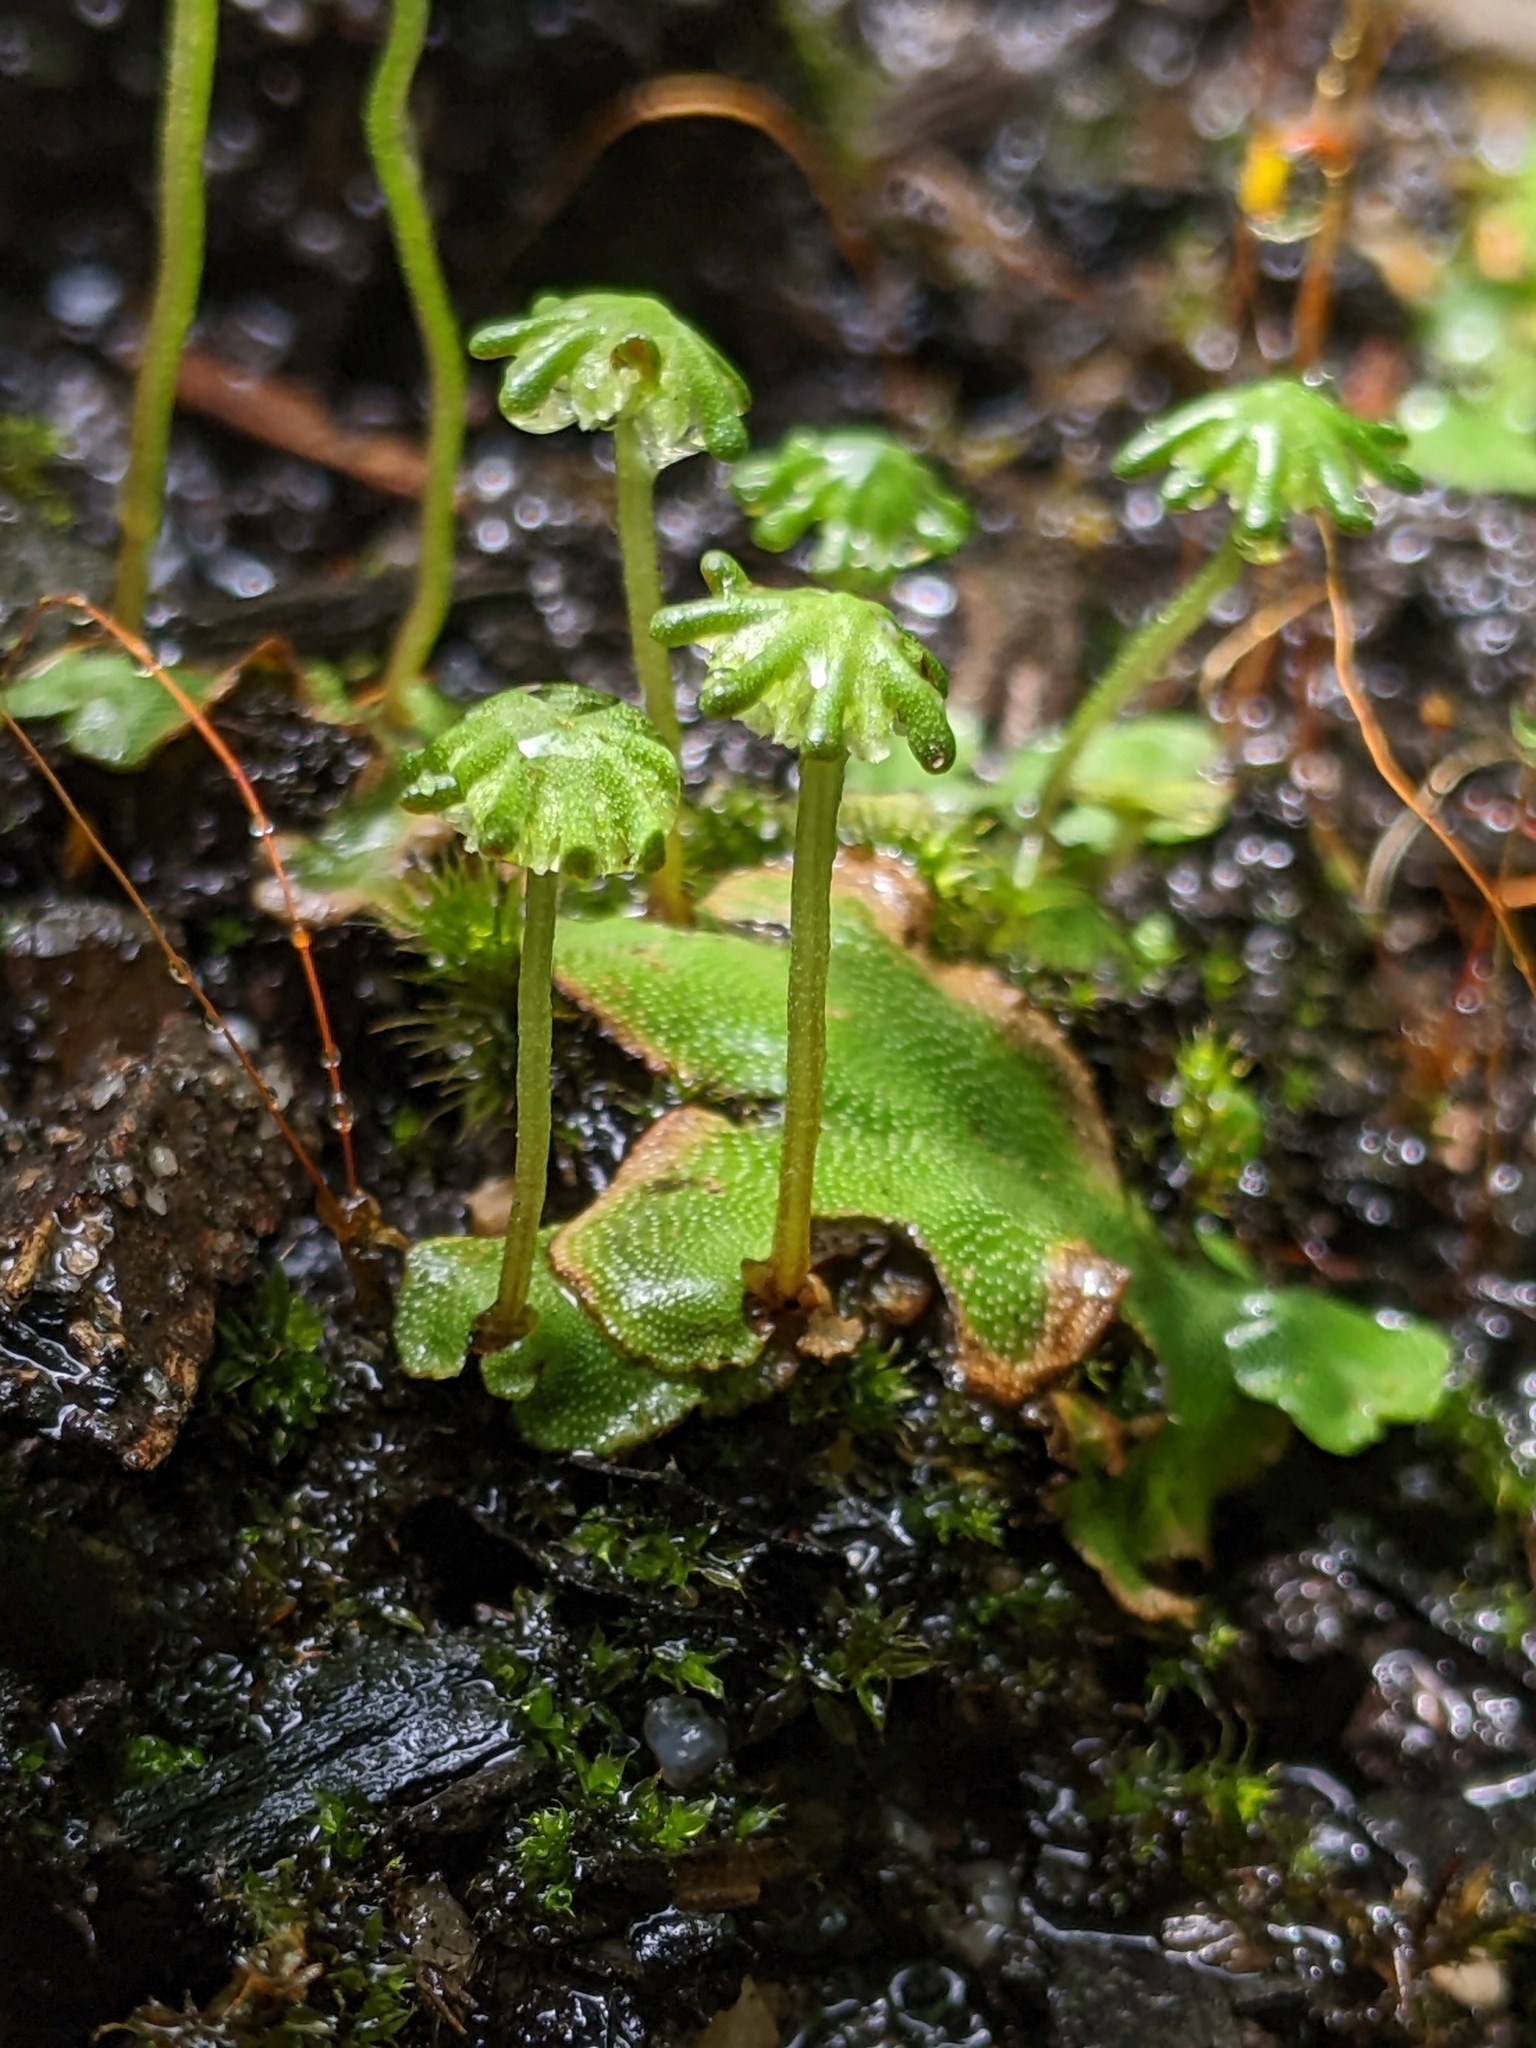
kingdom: Plantae
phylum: Marchantiophyta
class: Marchantiopsida
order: Marchantiales
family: Marchantiaceae
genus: Marchantia
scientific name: Marchantia berteroana
